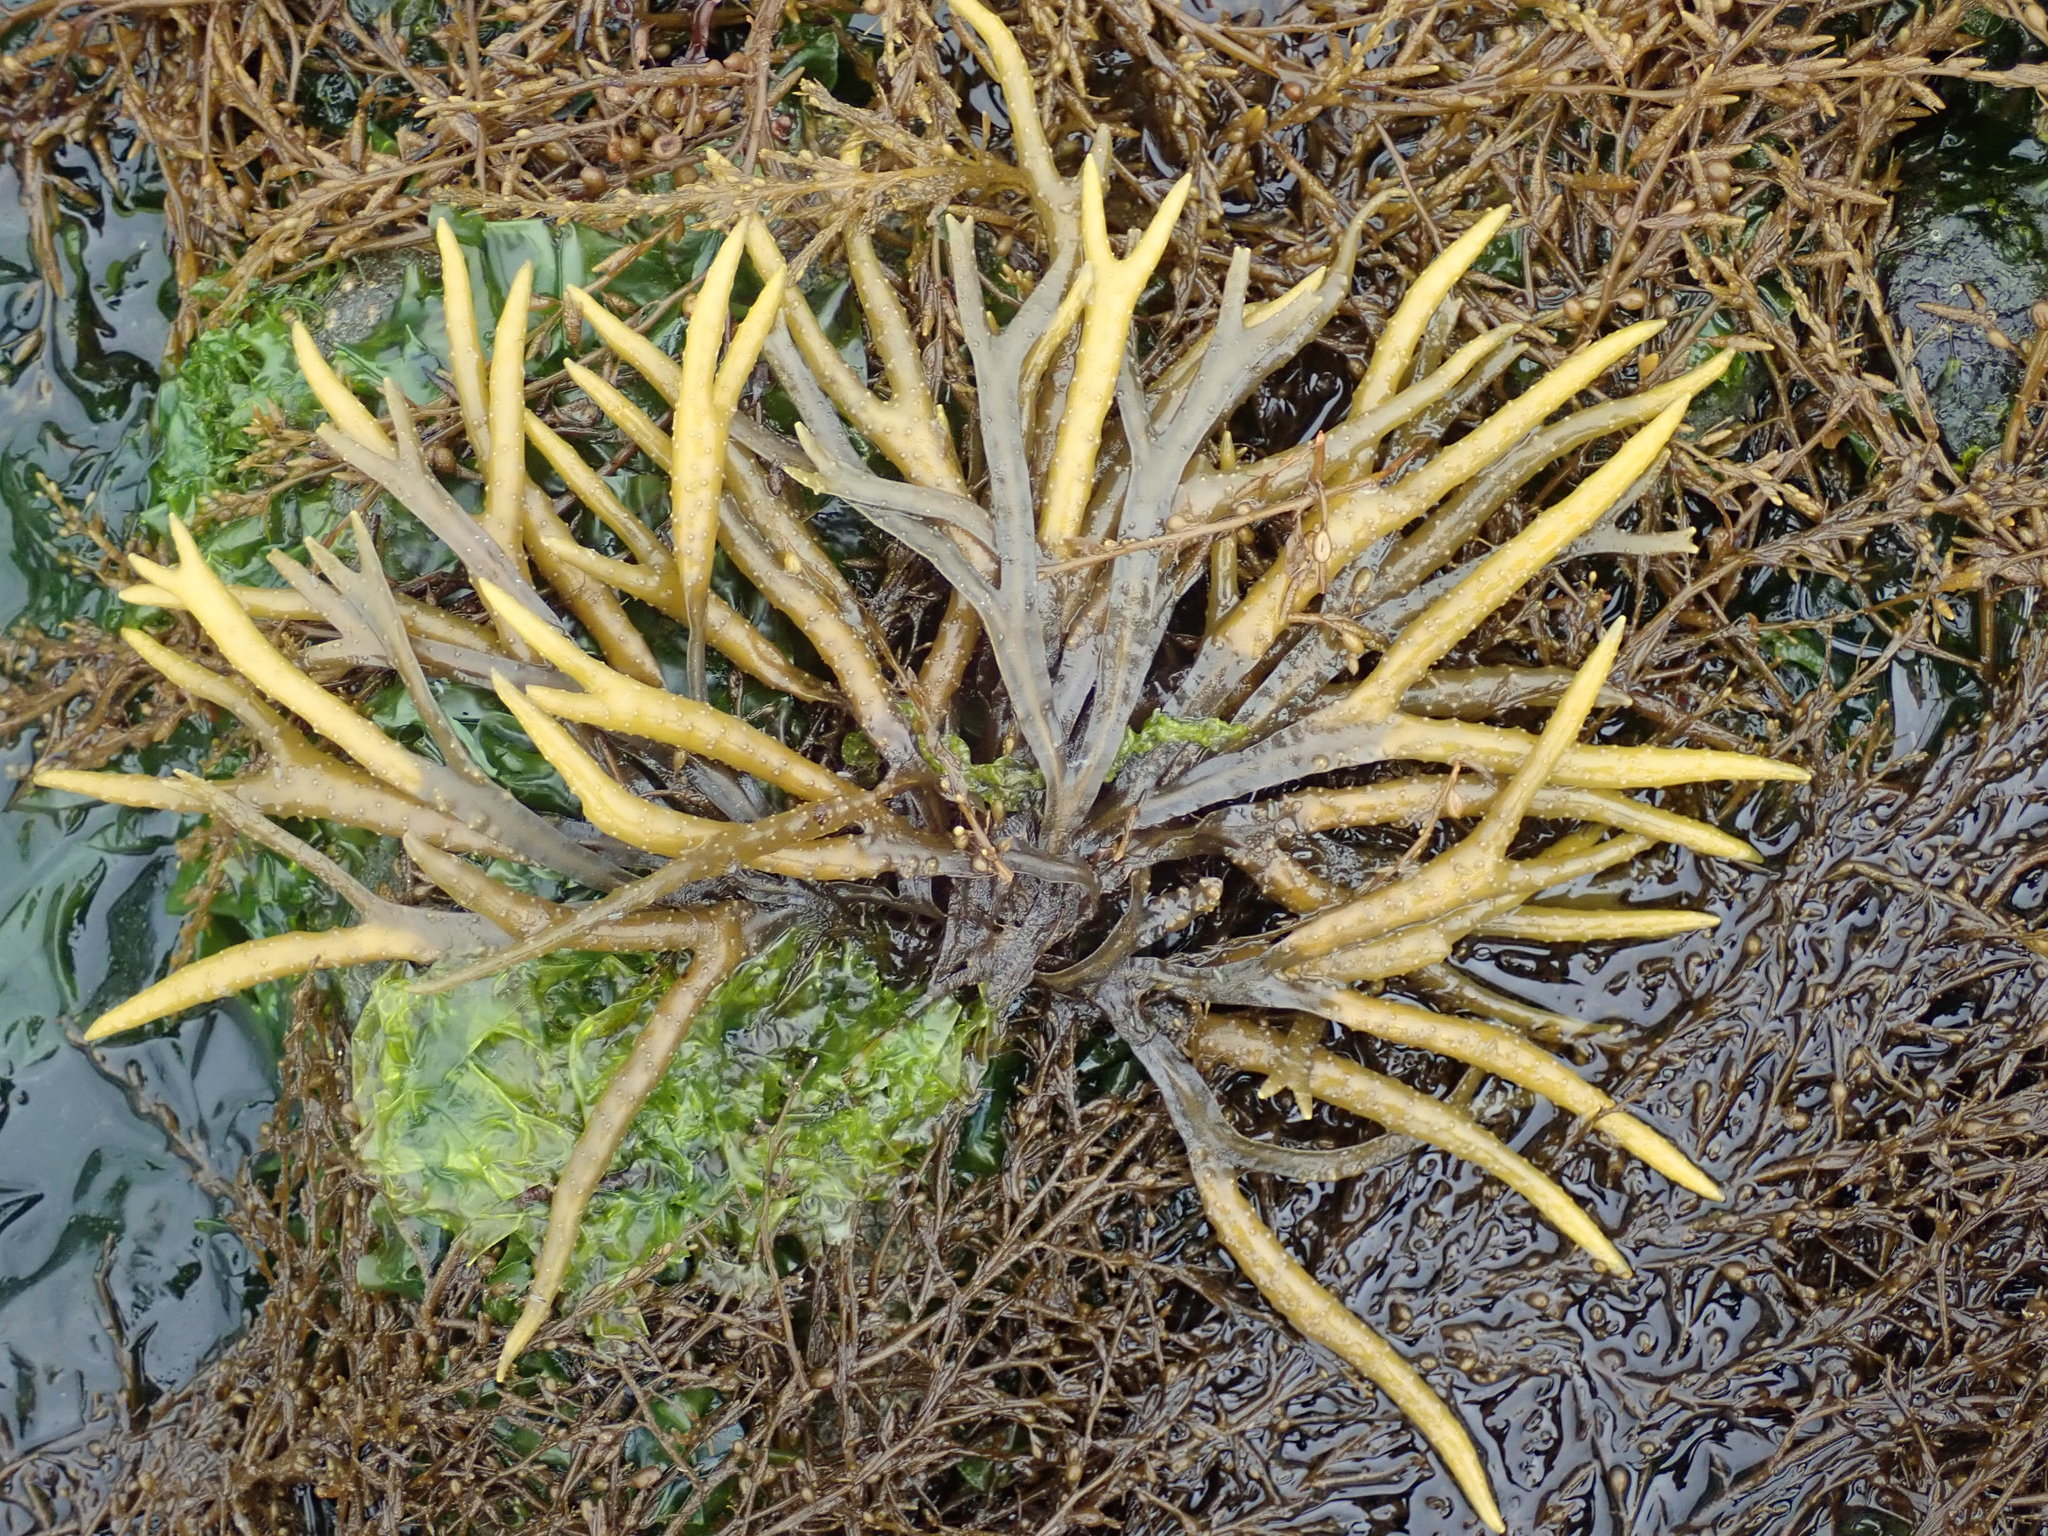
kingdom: Chromista
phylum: Ochrophyta
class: Phaeophyceae
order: Fucales
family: Fucaceae
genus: Fucus
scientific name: Fucus distichus
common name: Rockweed
